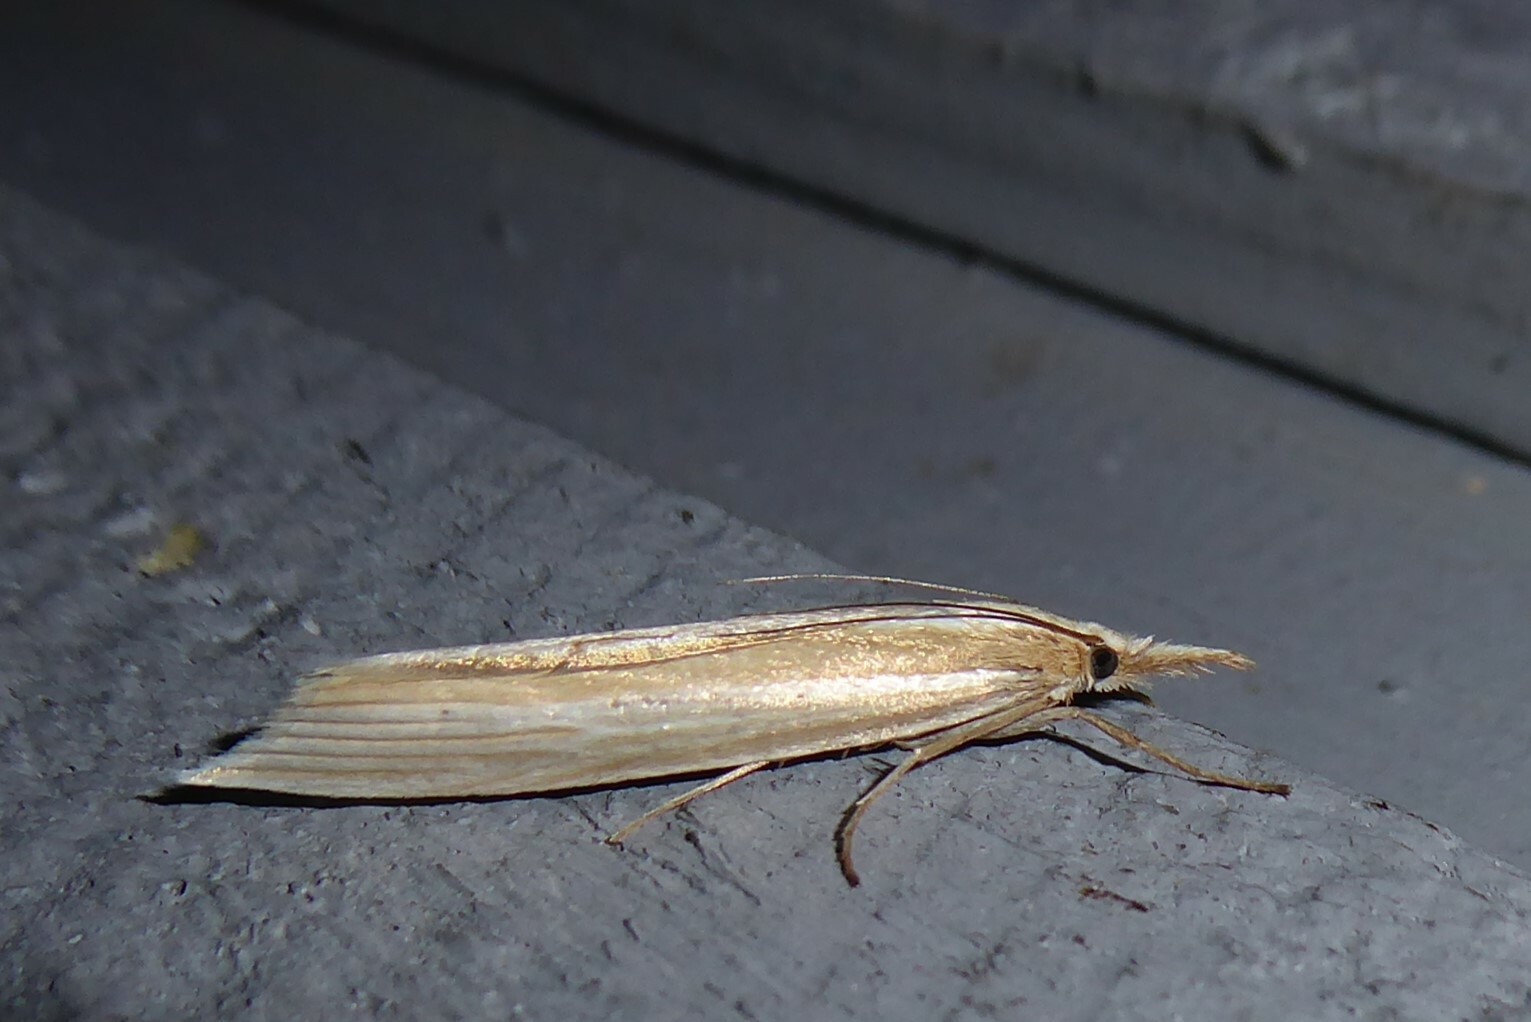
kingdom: Animalia
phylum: Arthropoda
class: Insecta
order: Lepidoptera
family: Crambidae
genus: Orocrambus
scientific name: Orocrambus angustipennis
